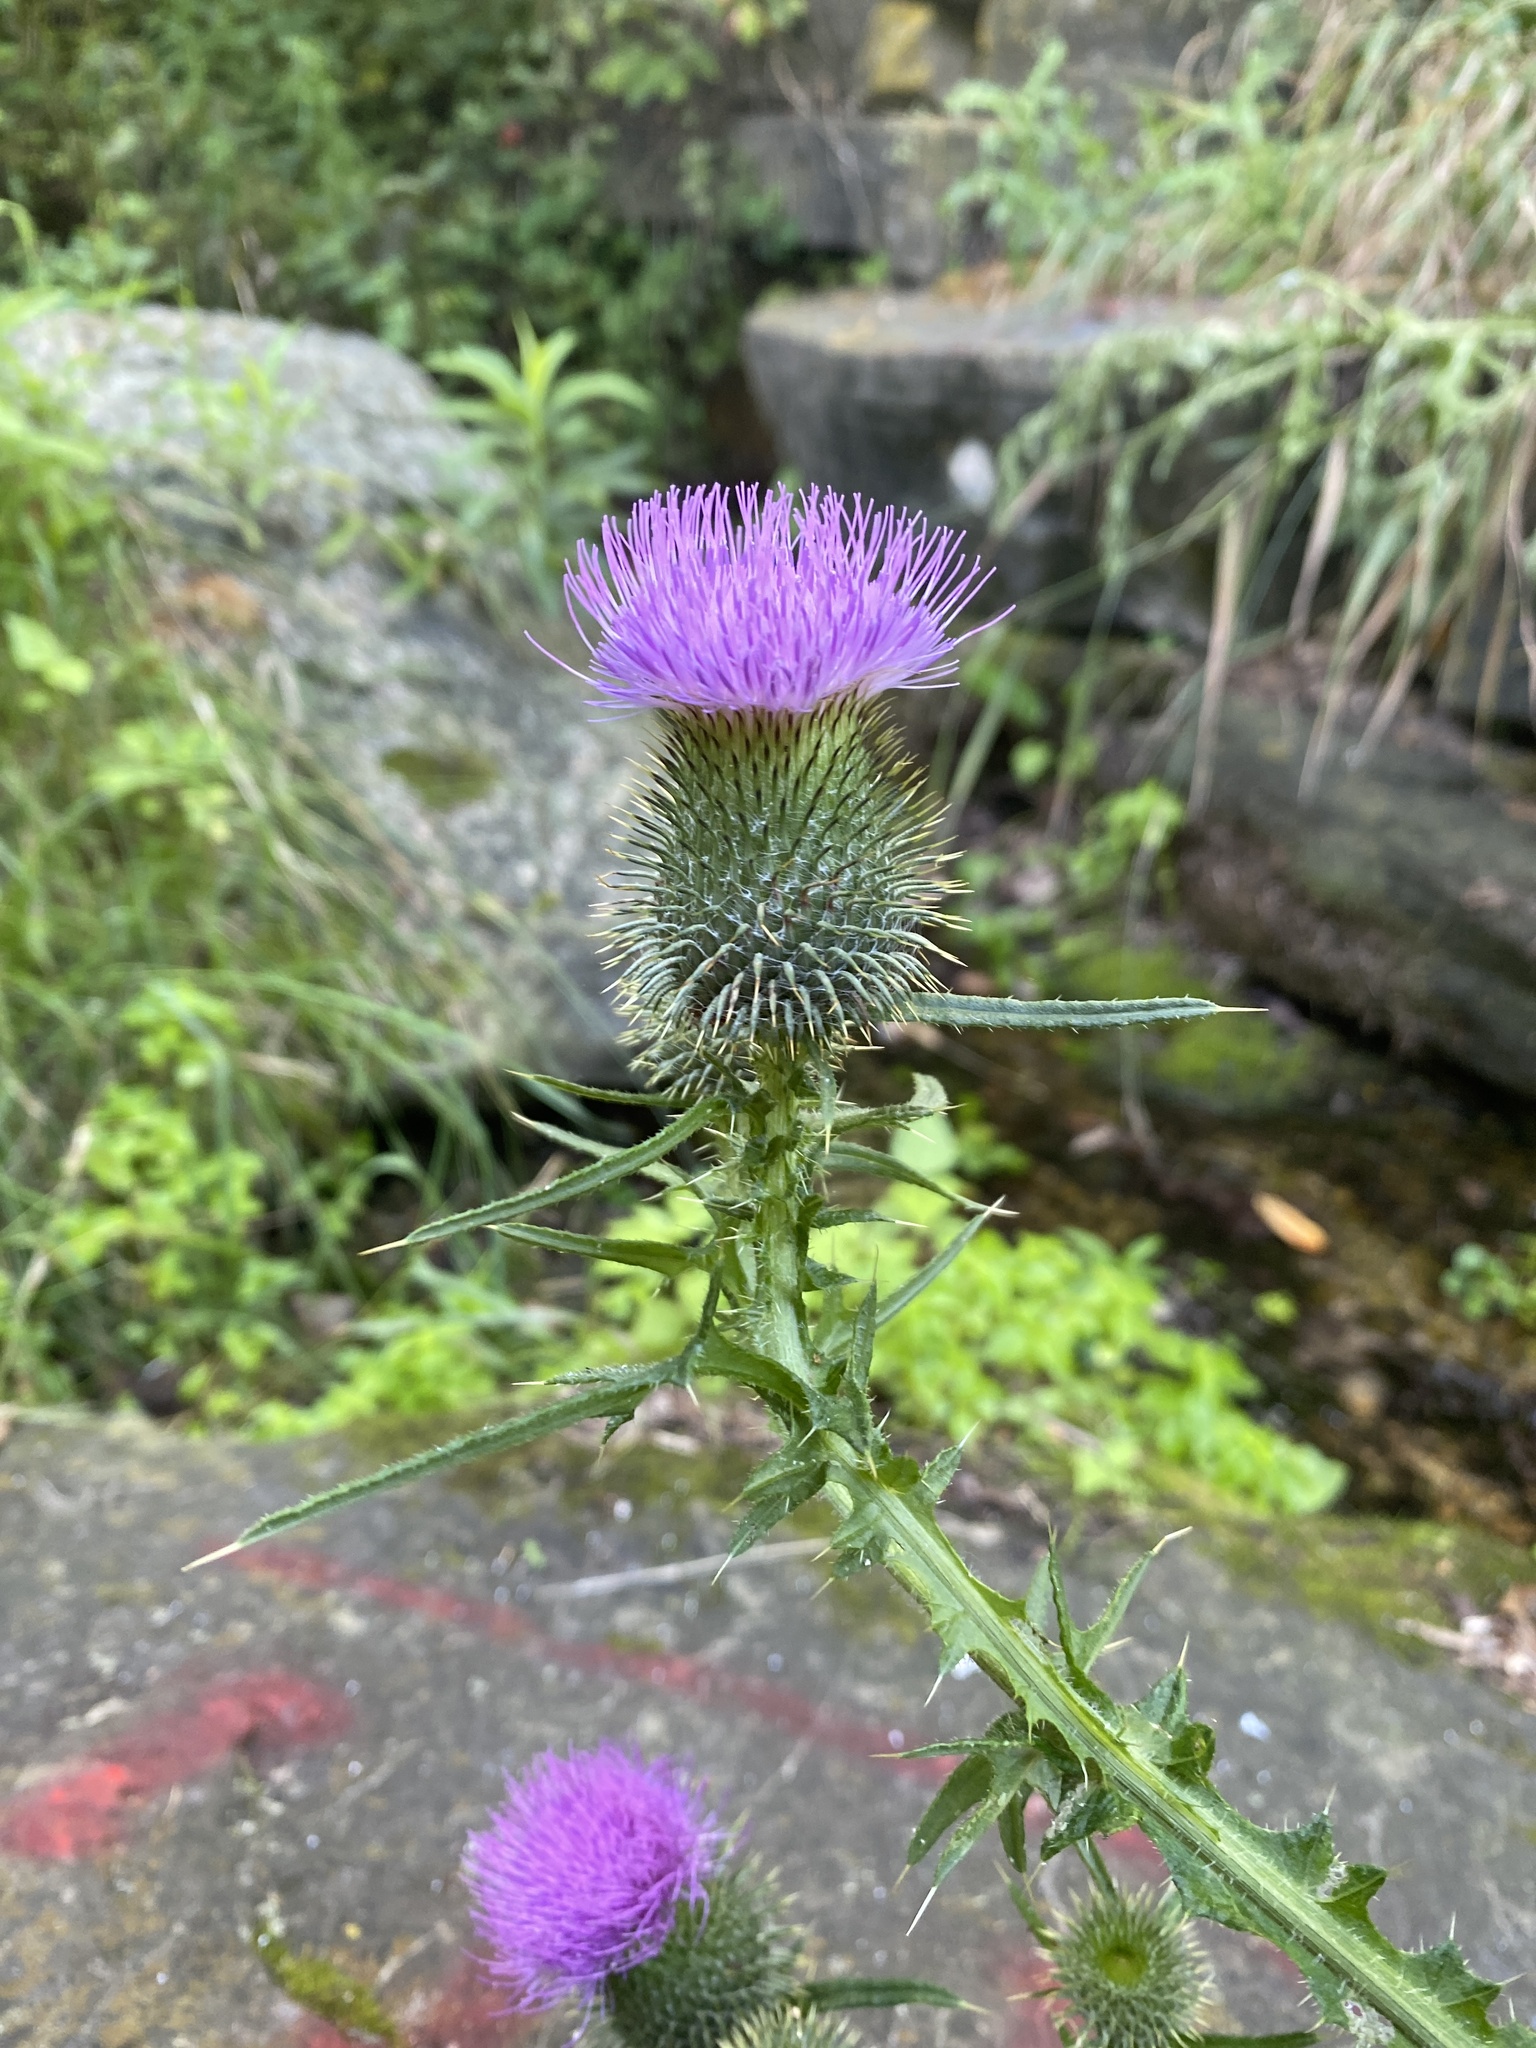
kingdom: Plantae
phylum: Tracheophyta
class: Magnoliopsida
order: Asterales
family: Asteraceae
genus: Cirsium
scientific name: Cirsium vulgare
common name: Bull thistle
